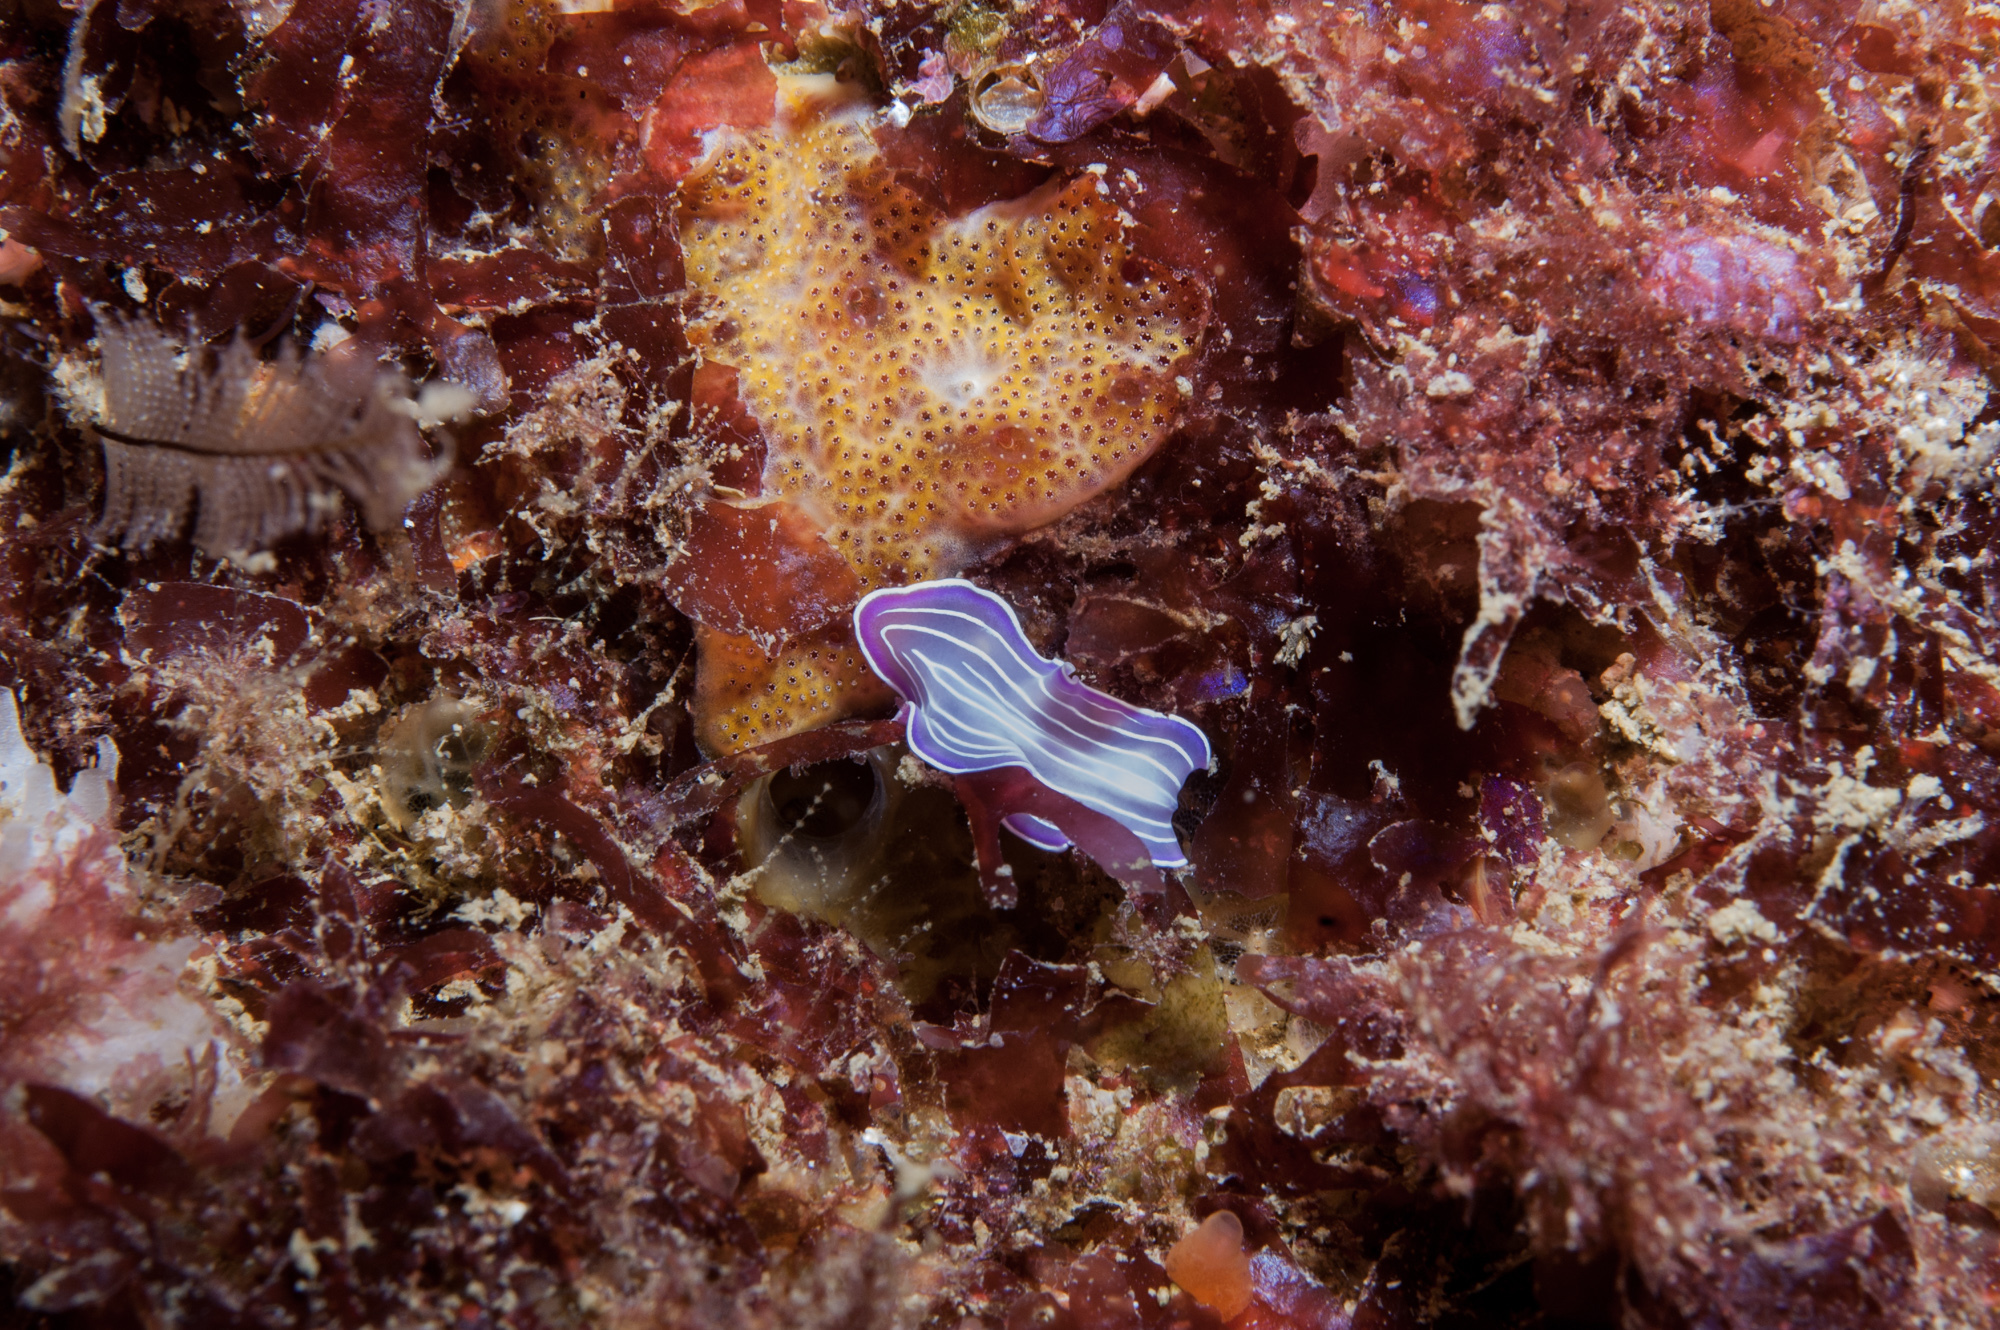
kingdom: Animalia
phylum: Platyhelminthes
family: Euryleptidae
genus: Prostheceraeus
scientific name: Prostheceraeus roseus
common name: Pink flatworm
